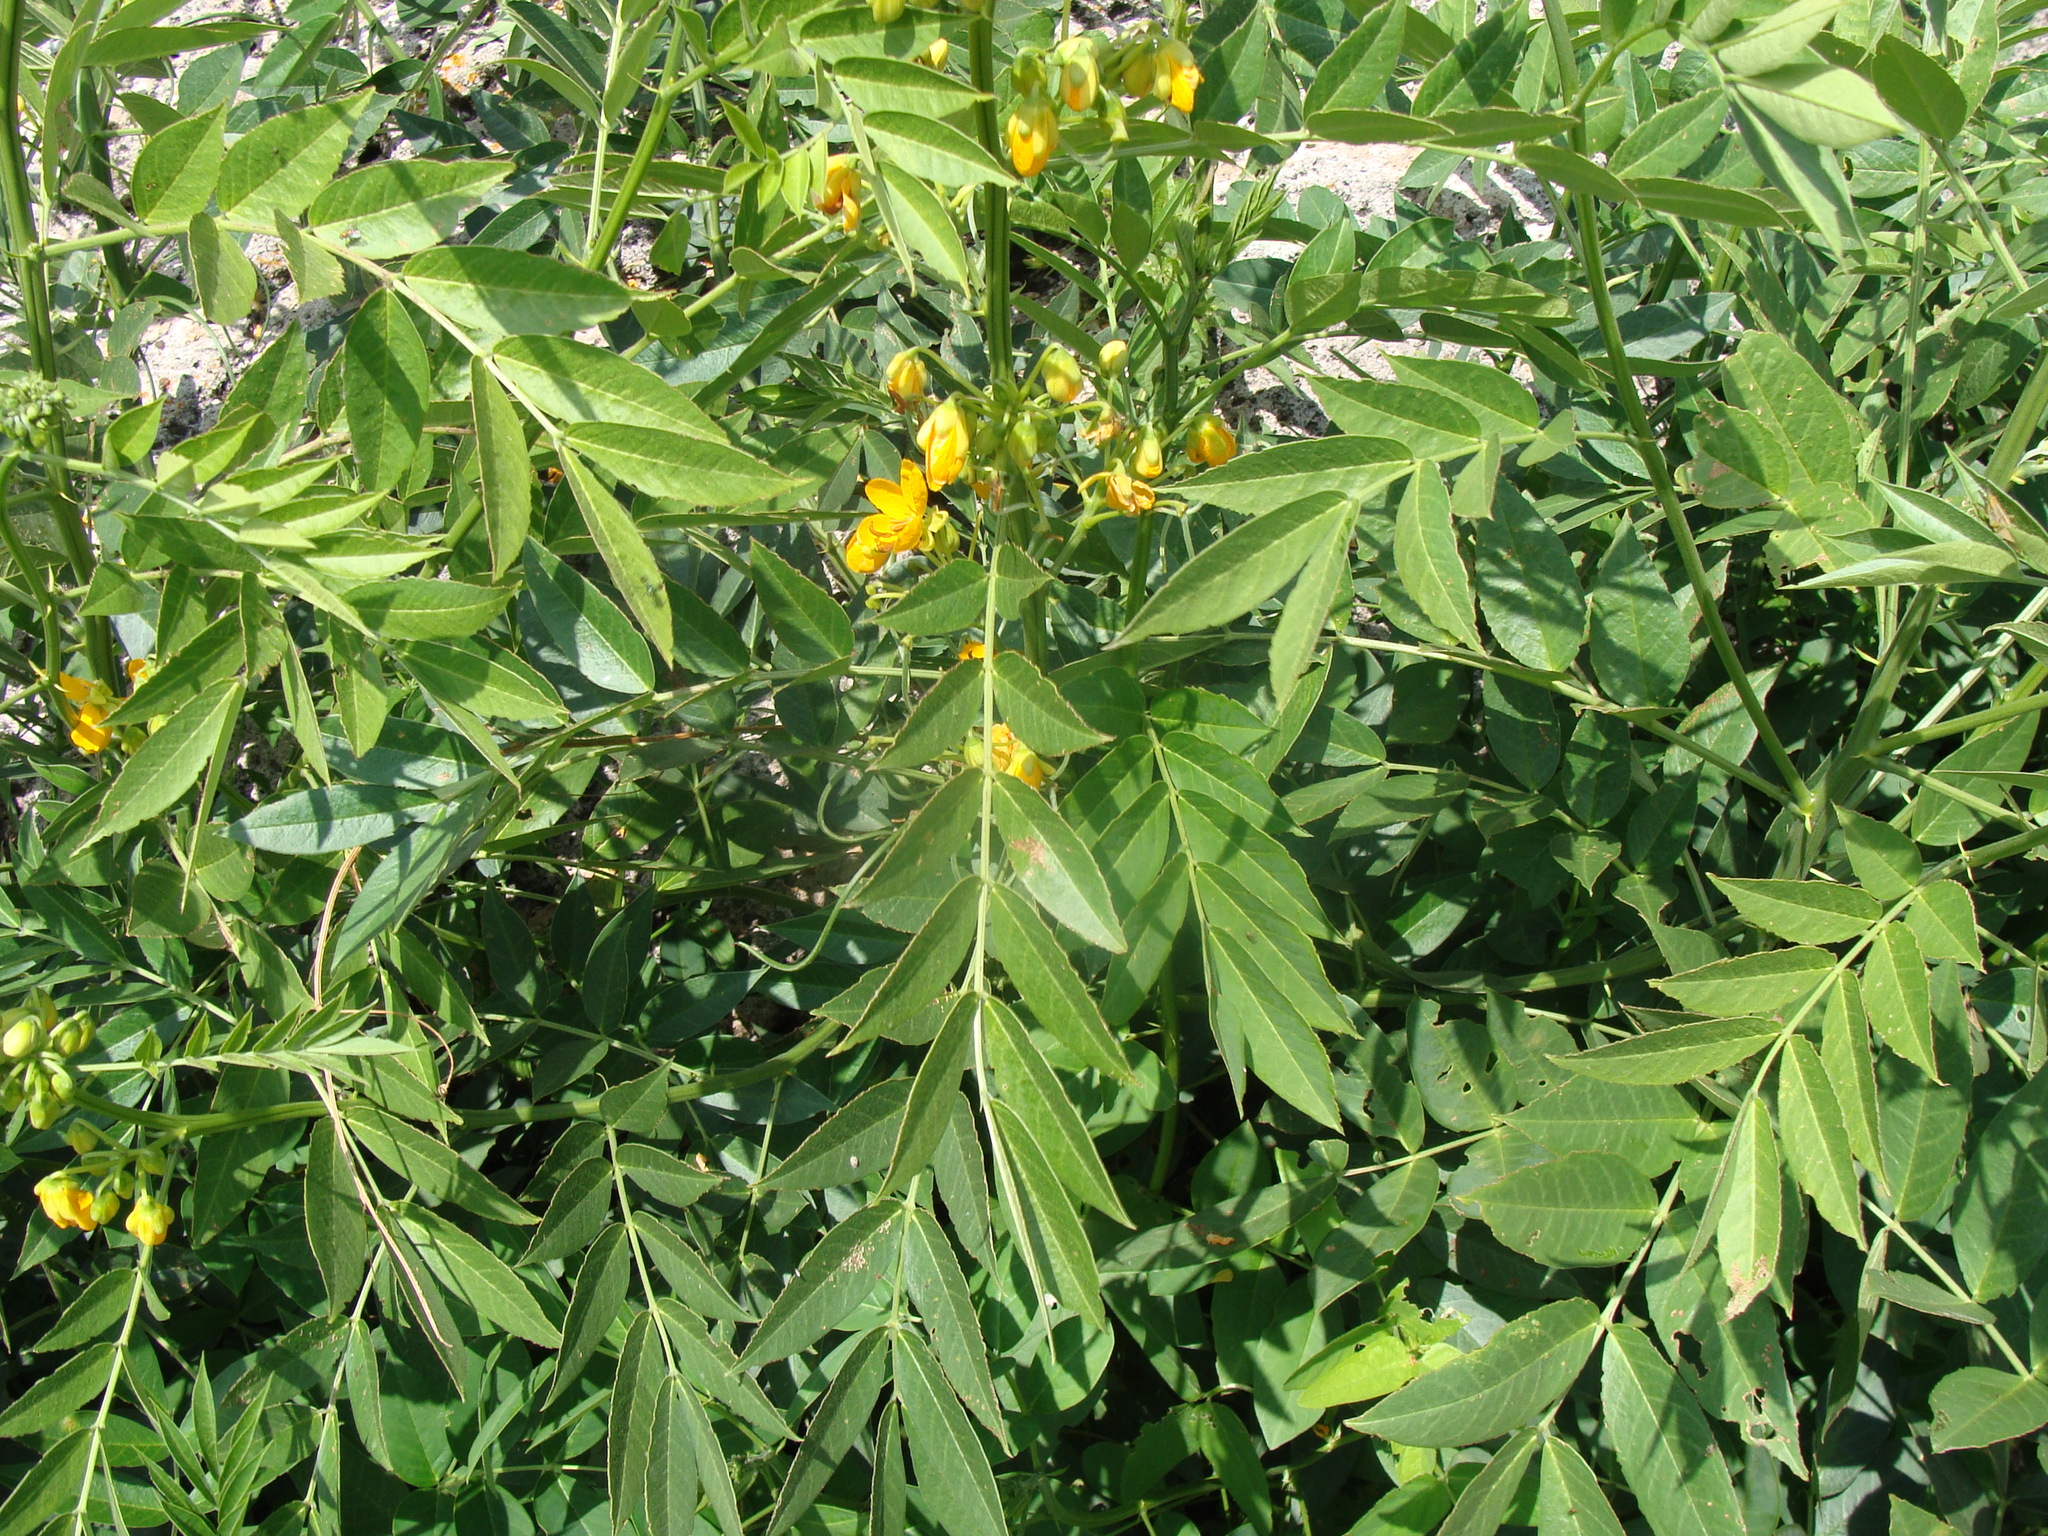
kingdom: Plantae
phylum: Tracheophyta
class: Magnoliopsida
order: Fabales
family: Fabaceae
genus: Senna
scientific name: Senna hirsuta
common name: Woolly senna
